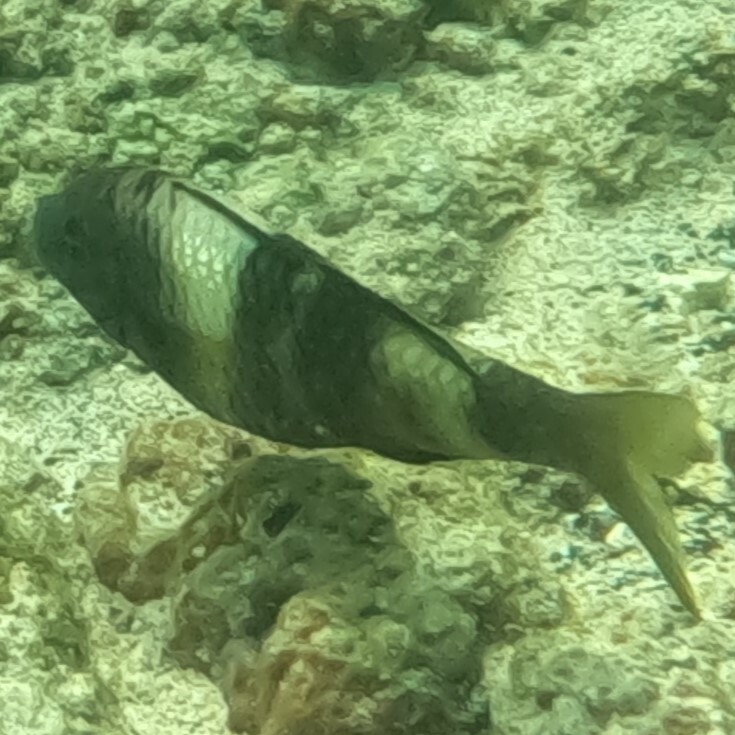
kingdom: Animalia
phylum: Chordata
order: Perciformes
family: Mullidae
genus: Parupeneus
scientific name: Parupeneus multifasciatus
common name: Manybar goatfish
